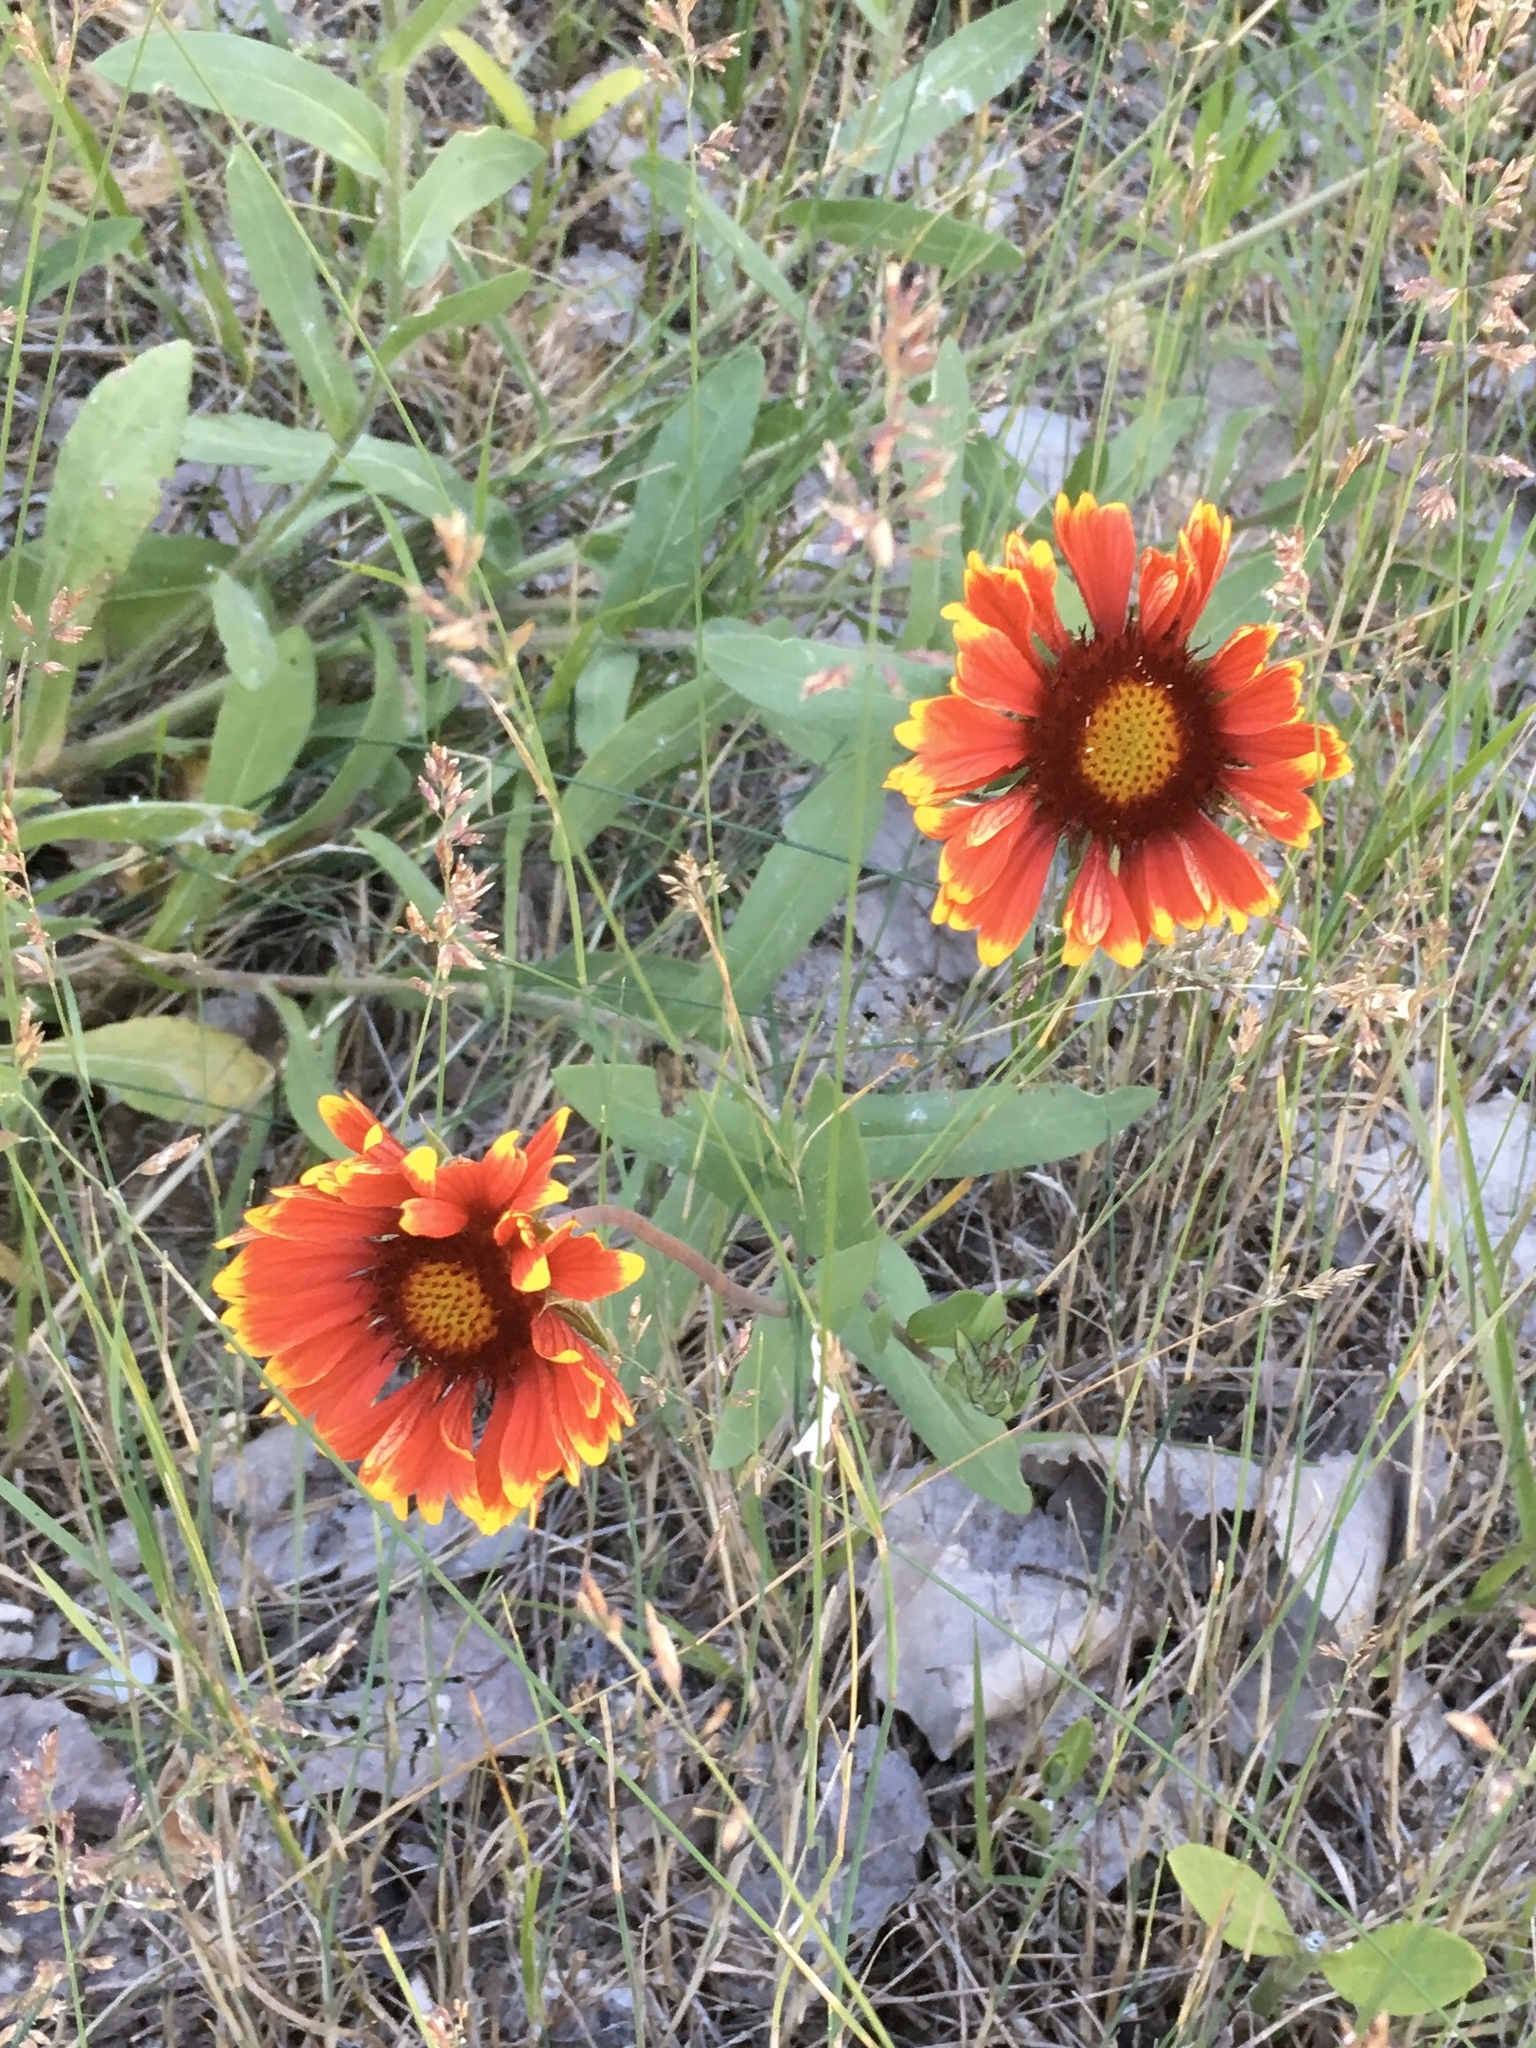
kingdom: Plantae
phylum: Tracheophyta
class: Magnoliopsida
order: Asterales
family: Asteraceae
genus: Gaillardia
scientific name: Gaillardia pulchella
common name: Firewheel
